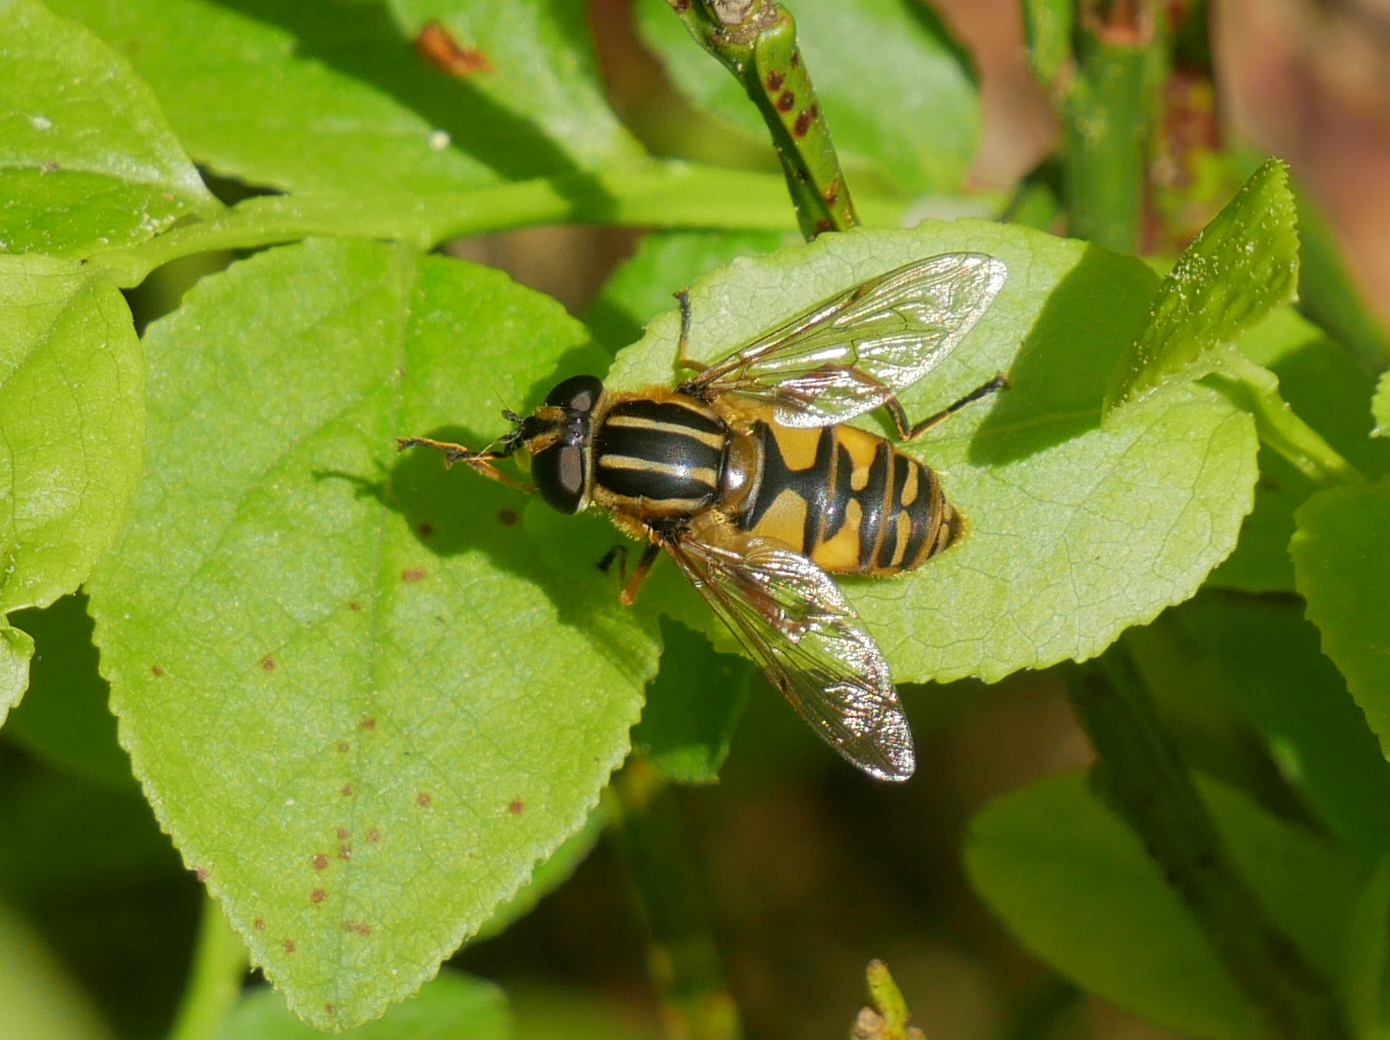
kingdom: Animalia
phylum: Arthropoda
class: Insecta
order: Diptera
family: Syrphidae
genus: Helophilus
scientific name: Helophilus pendulus
